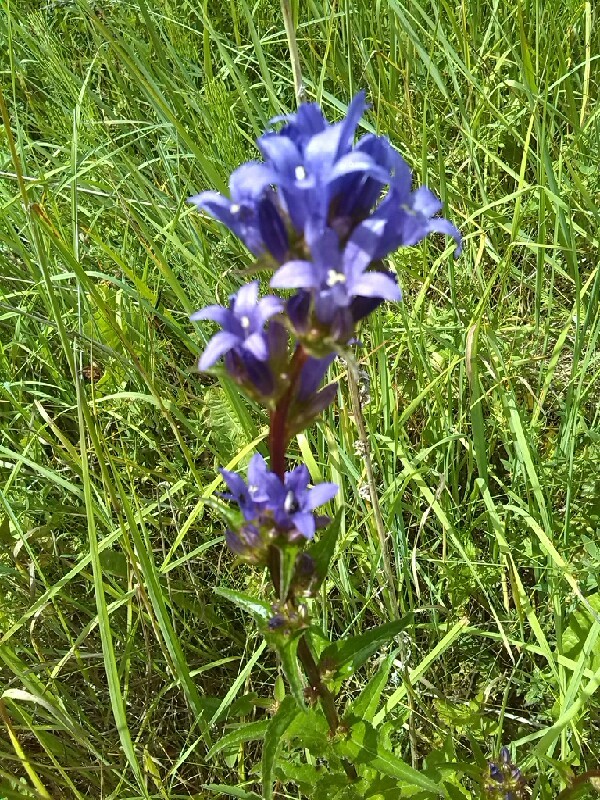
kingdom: Plantae
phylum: Tracheophyta
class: Magnoliopsida
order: Asterales
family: Campanulaceae
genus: Campanula
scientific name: Campanula glomerata
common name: Clustered bellflower
